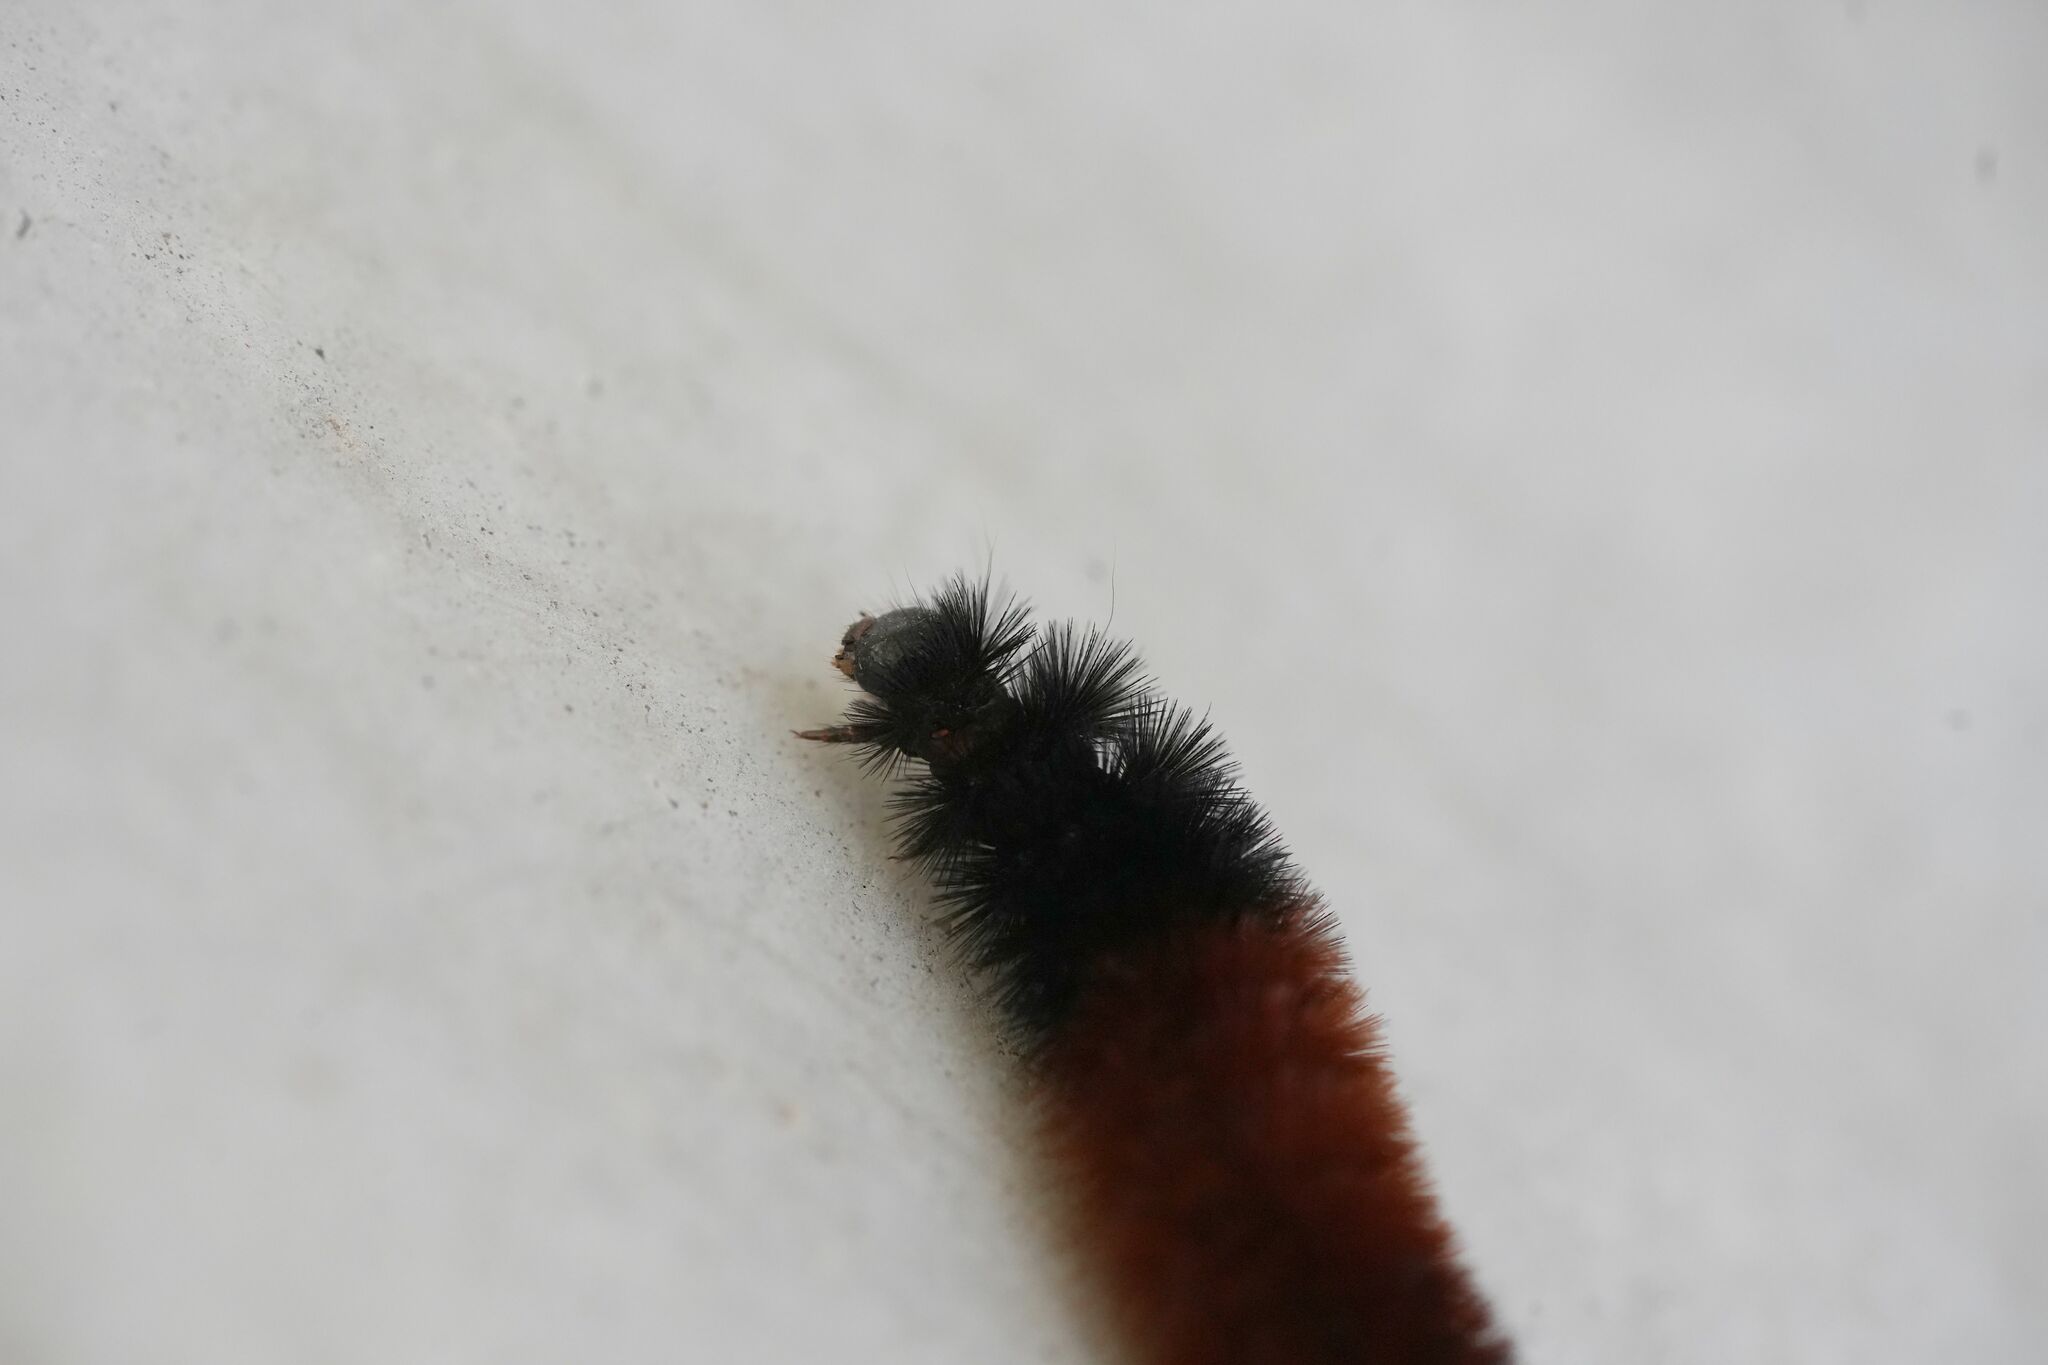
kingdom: Animalia
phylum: Arthropoda
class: Insecta
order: Lepidoptera
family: Erebidae
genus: Pyrrharctia
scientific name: Pyrrharctia isabella
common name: Isabella tiger moth
